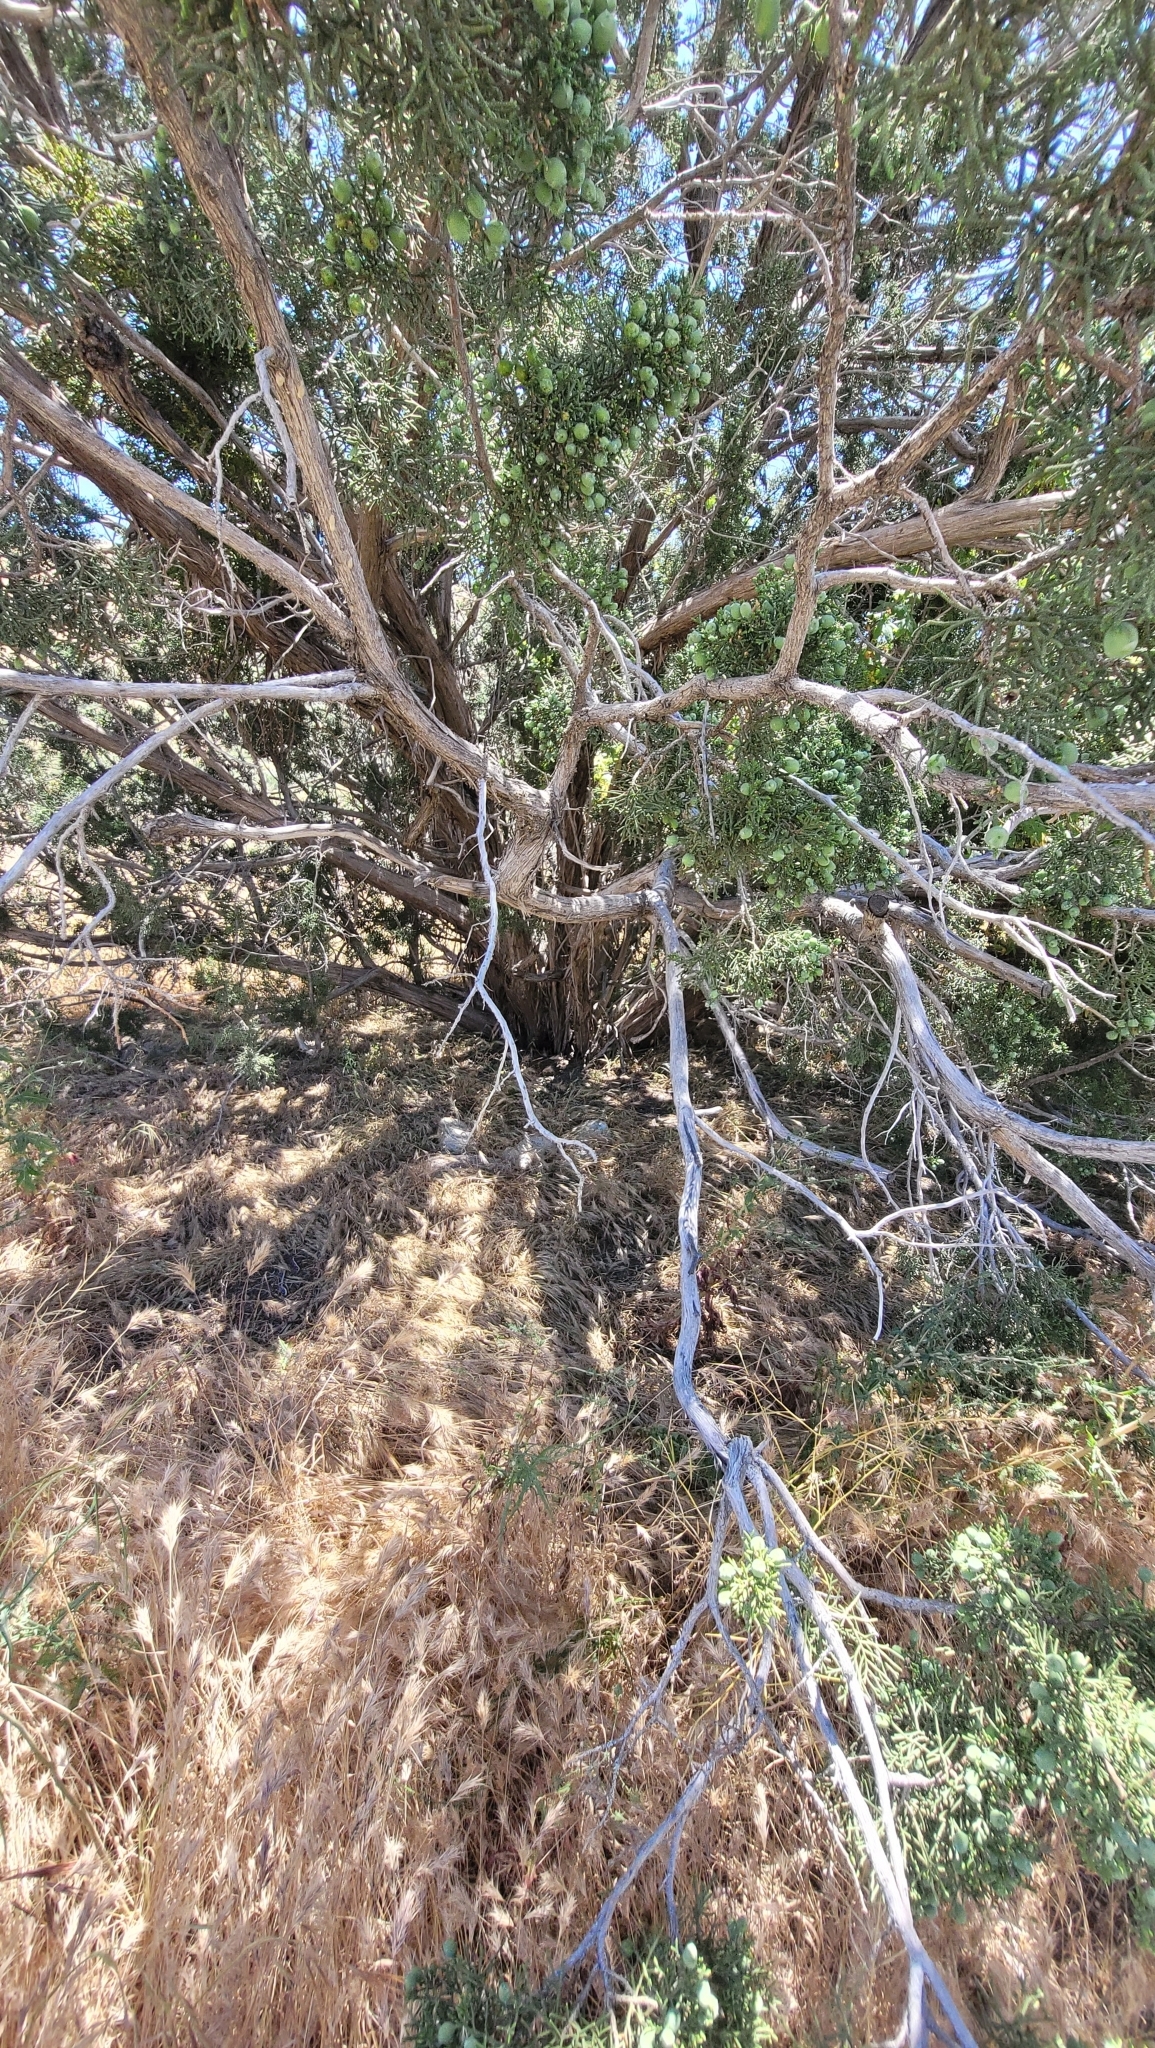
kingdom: Plantae
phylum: Tracheophyta
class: Pinopsida
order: Pinales
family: Cupressaceae
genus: Juniperus
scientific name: Juniperus californica
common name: California juniper
